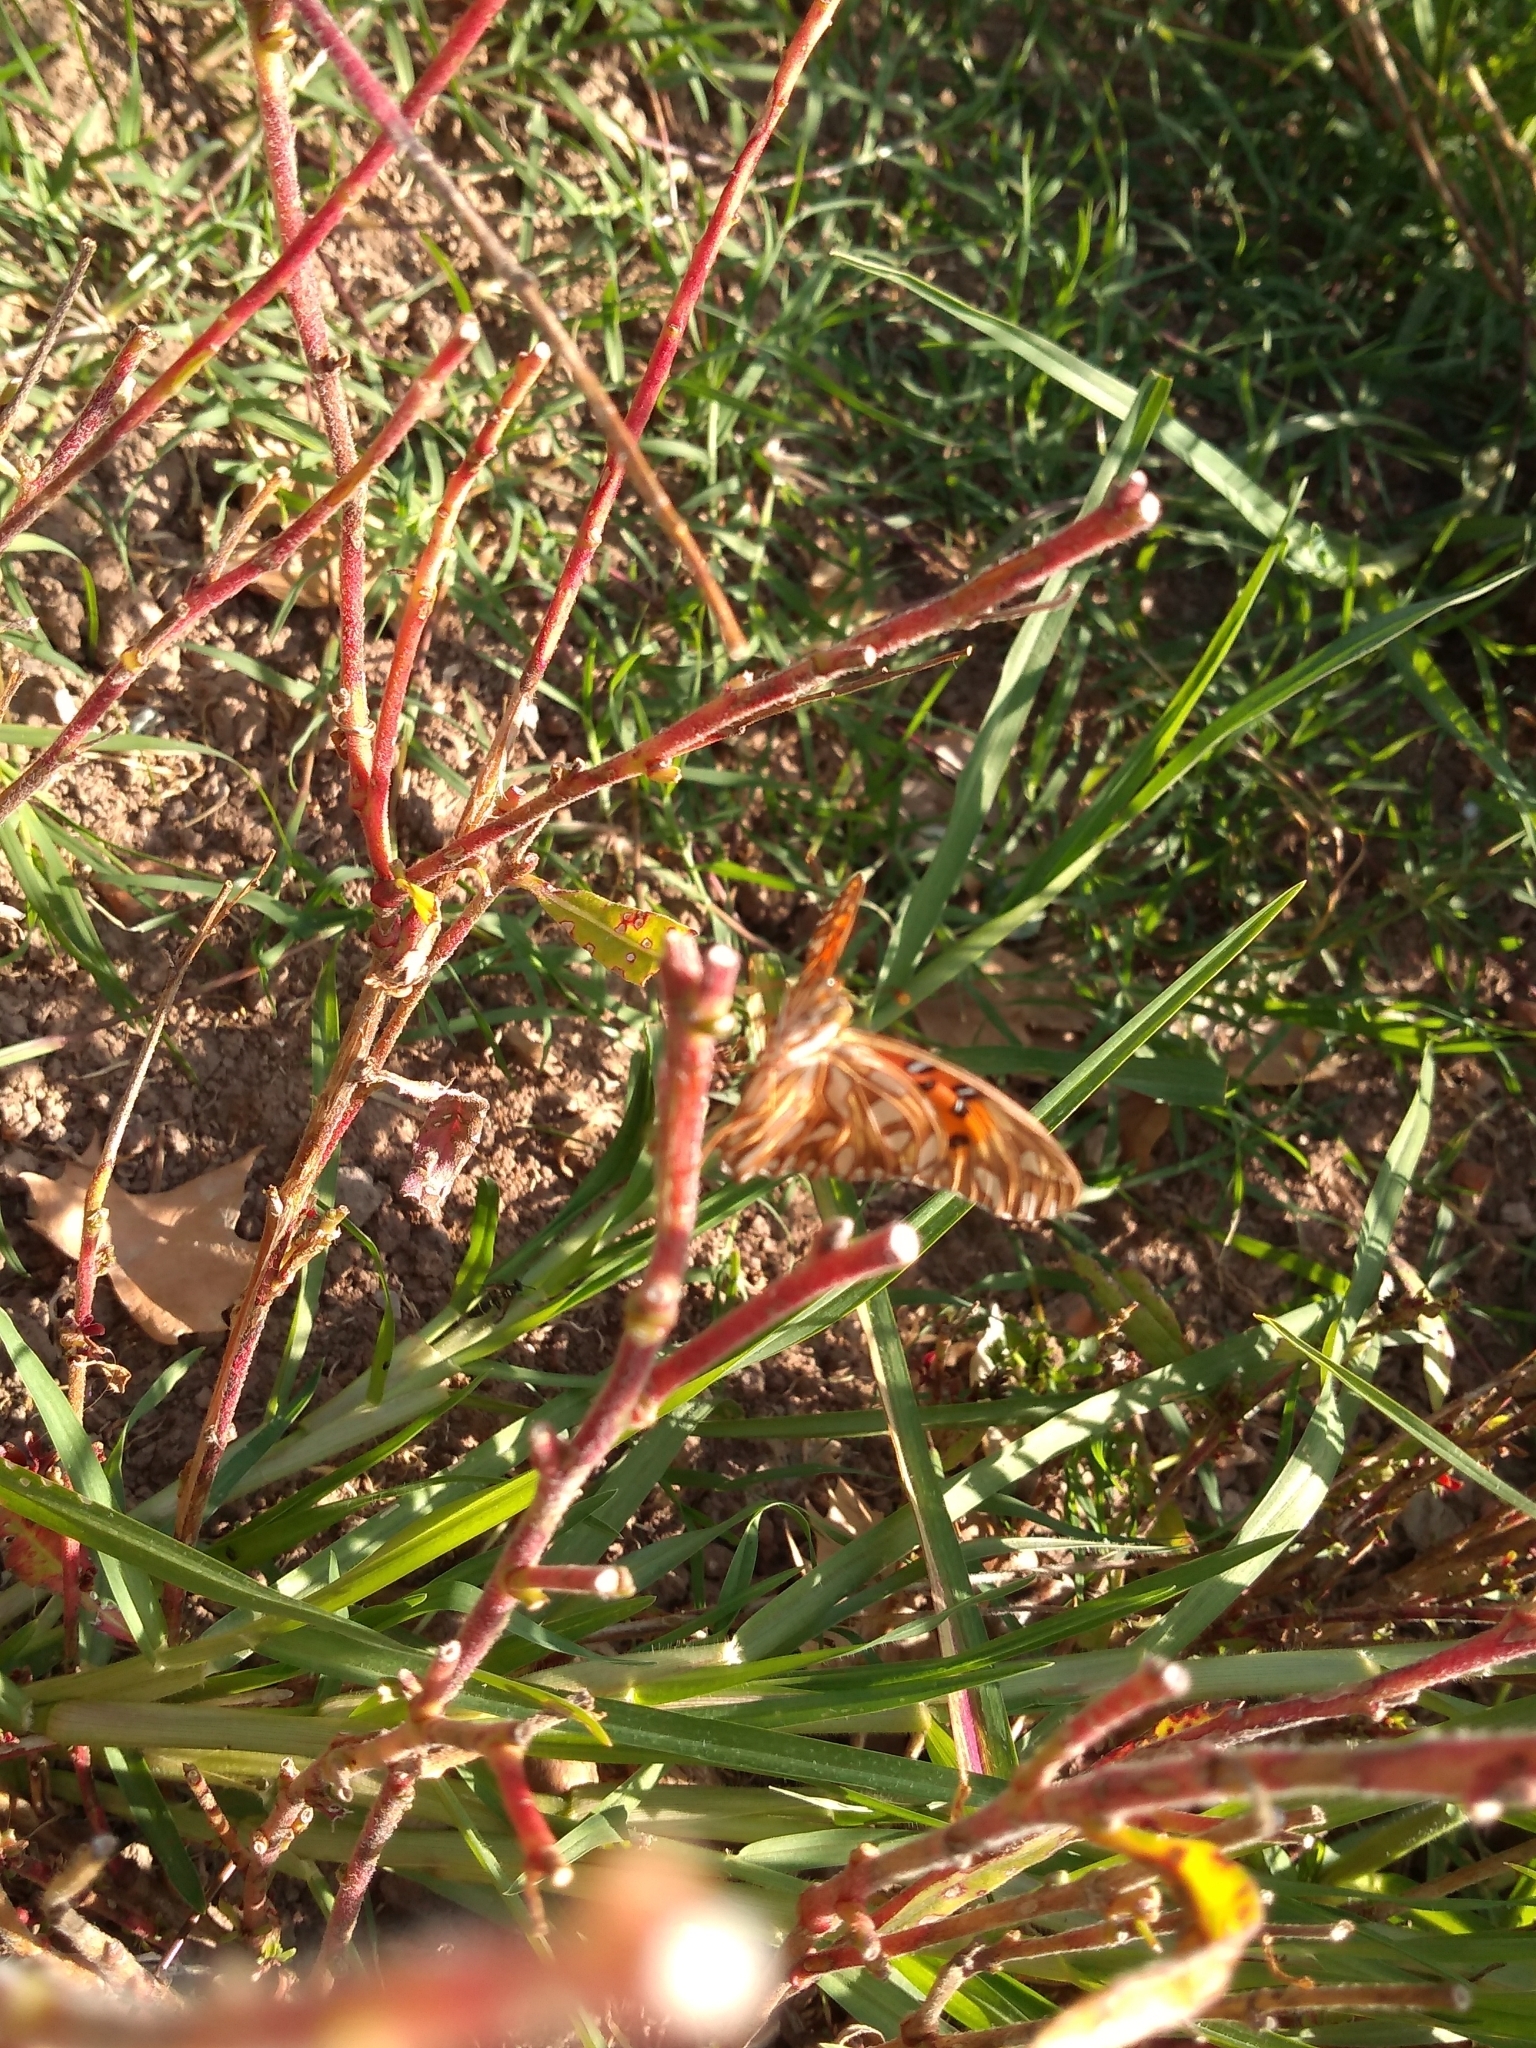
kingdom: Animalia
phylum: Arthropoda
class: Insecta
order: Lepidoptera
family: Nymphalidae
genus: Dione
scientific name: Dione vanillae
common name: Gulf fritillary
